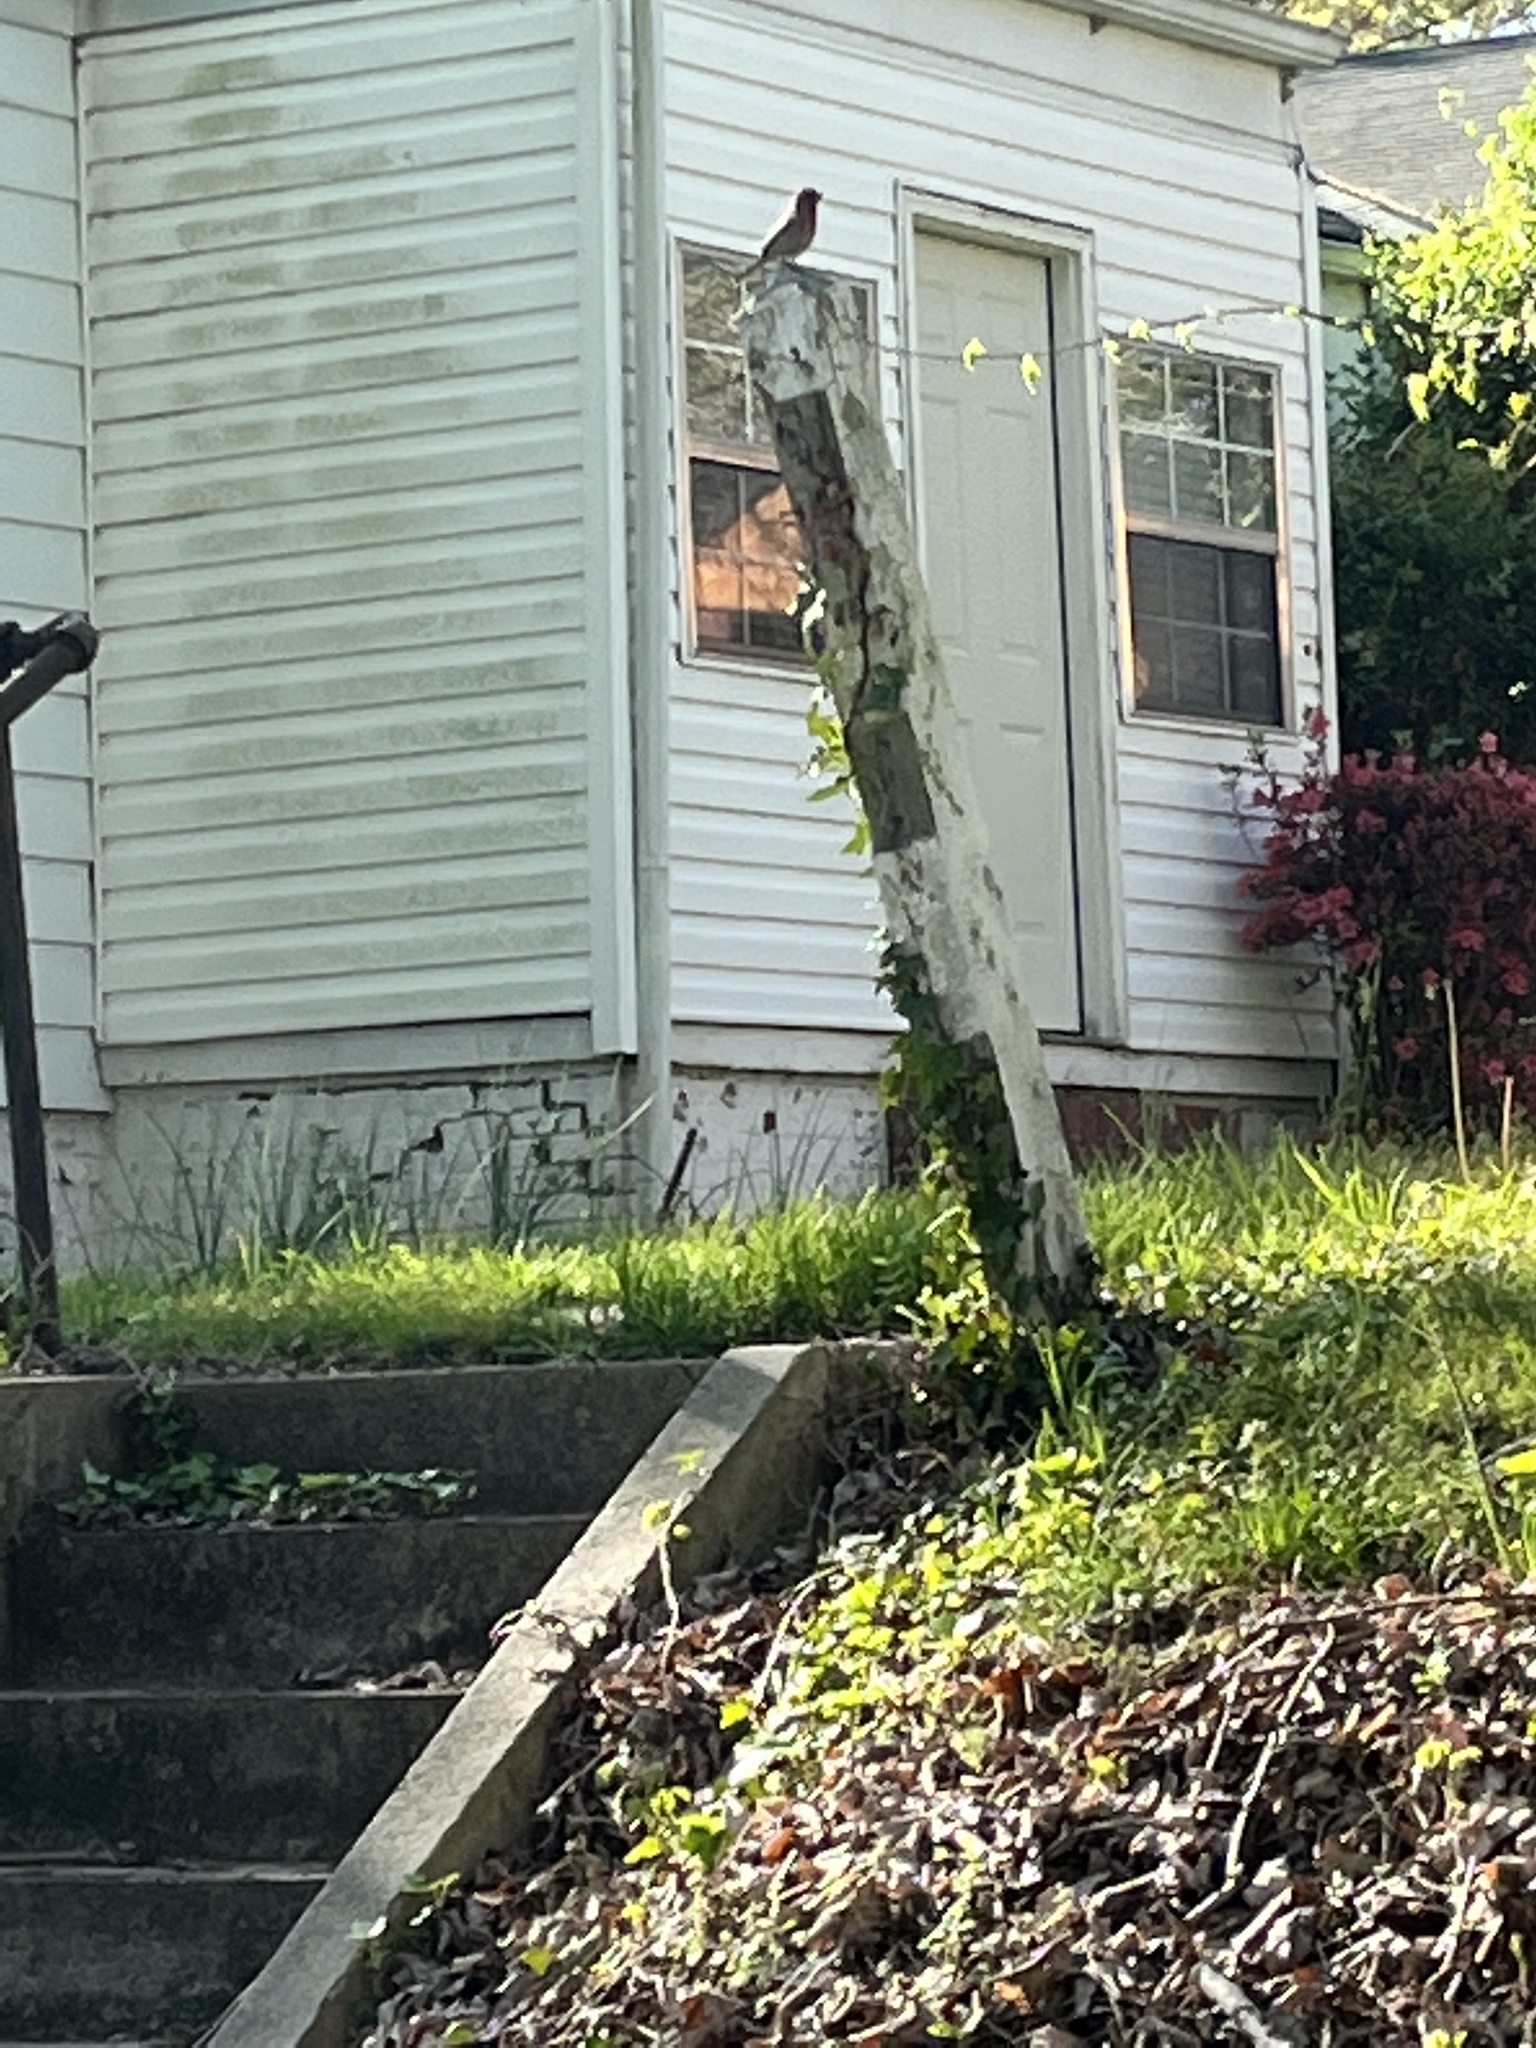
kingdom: Animalia
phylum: Chordata
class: Aves
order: Passeriformes
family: Fringillidae
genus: Haemorhous
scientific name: Haemorhous mexicanus
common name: House finch
